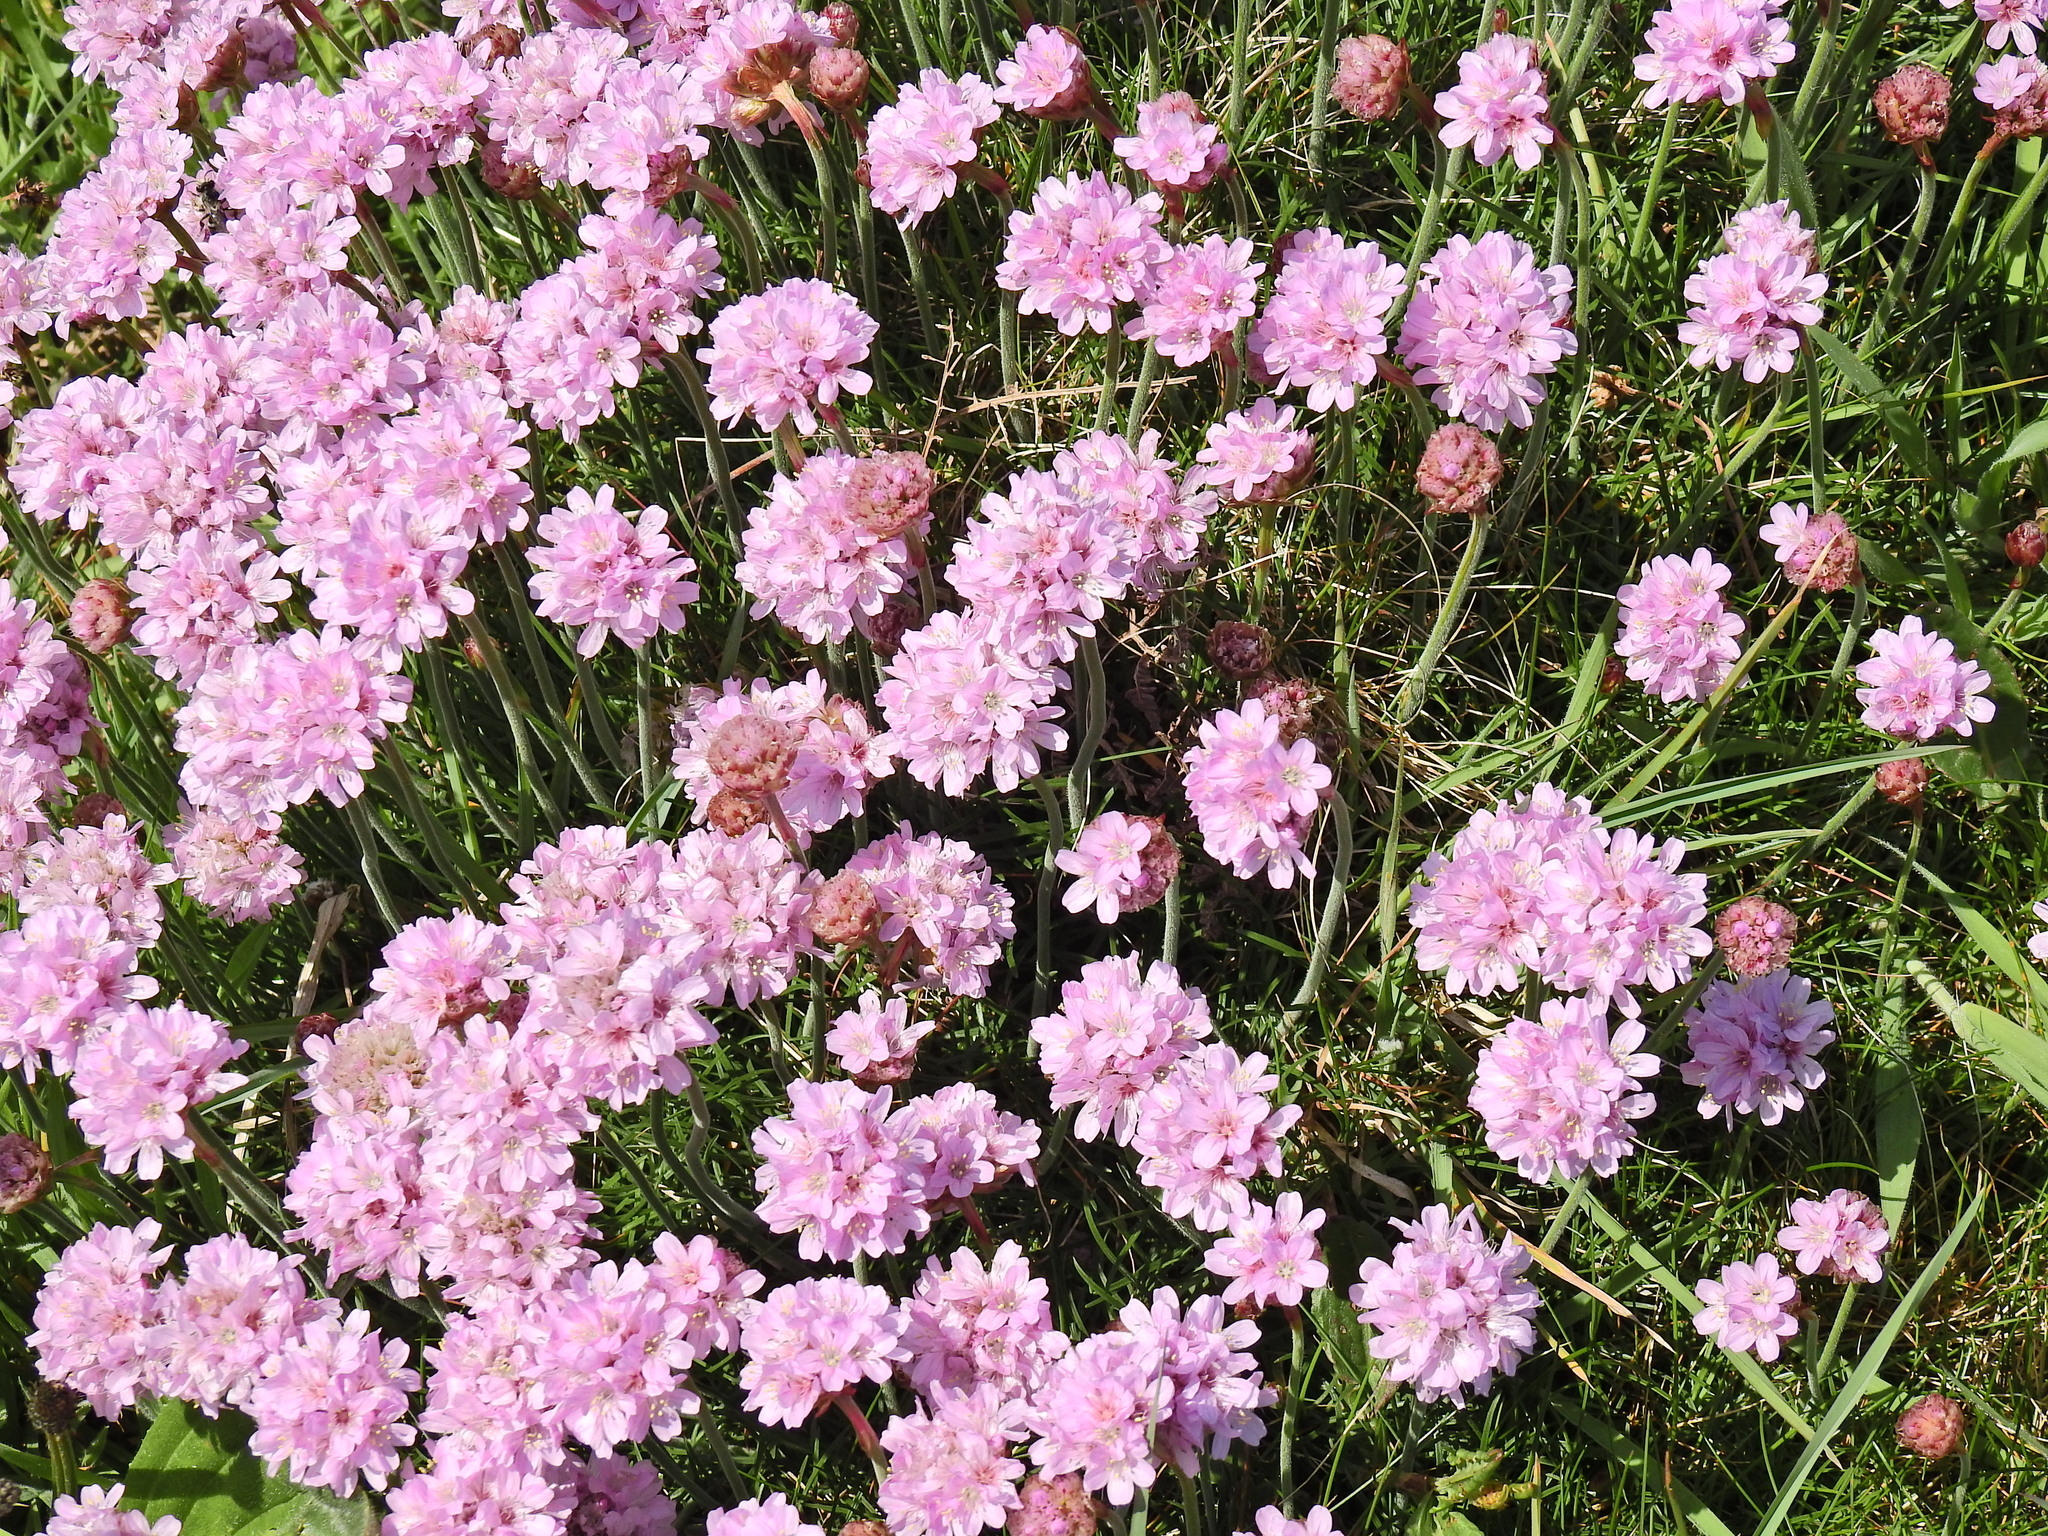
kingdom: Plantae
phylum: Tracheophyta
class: Magnoliopsida
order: Caryophyllales
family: Plumbaginaceae
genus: Armeria
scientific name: Armeria maritima
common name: Thrift
